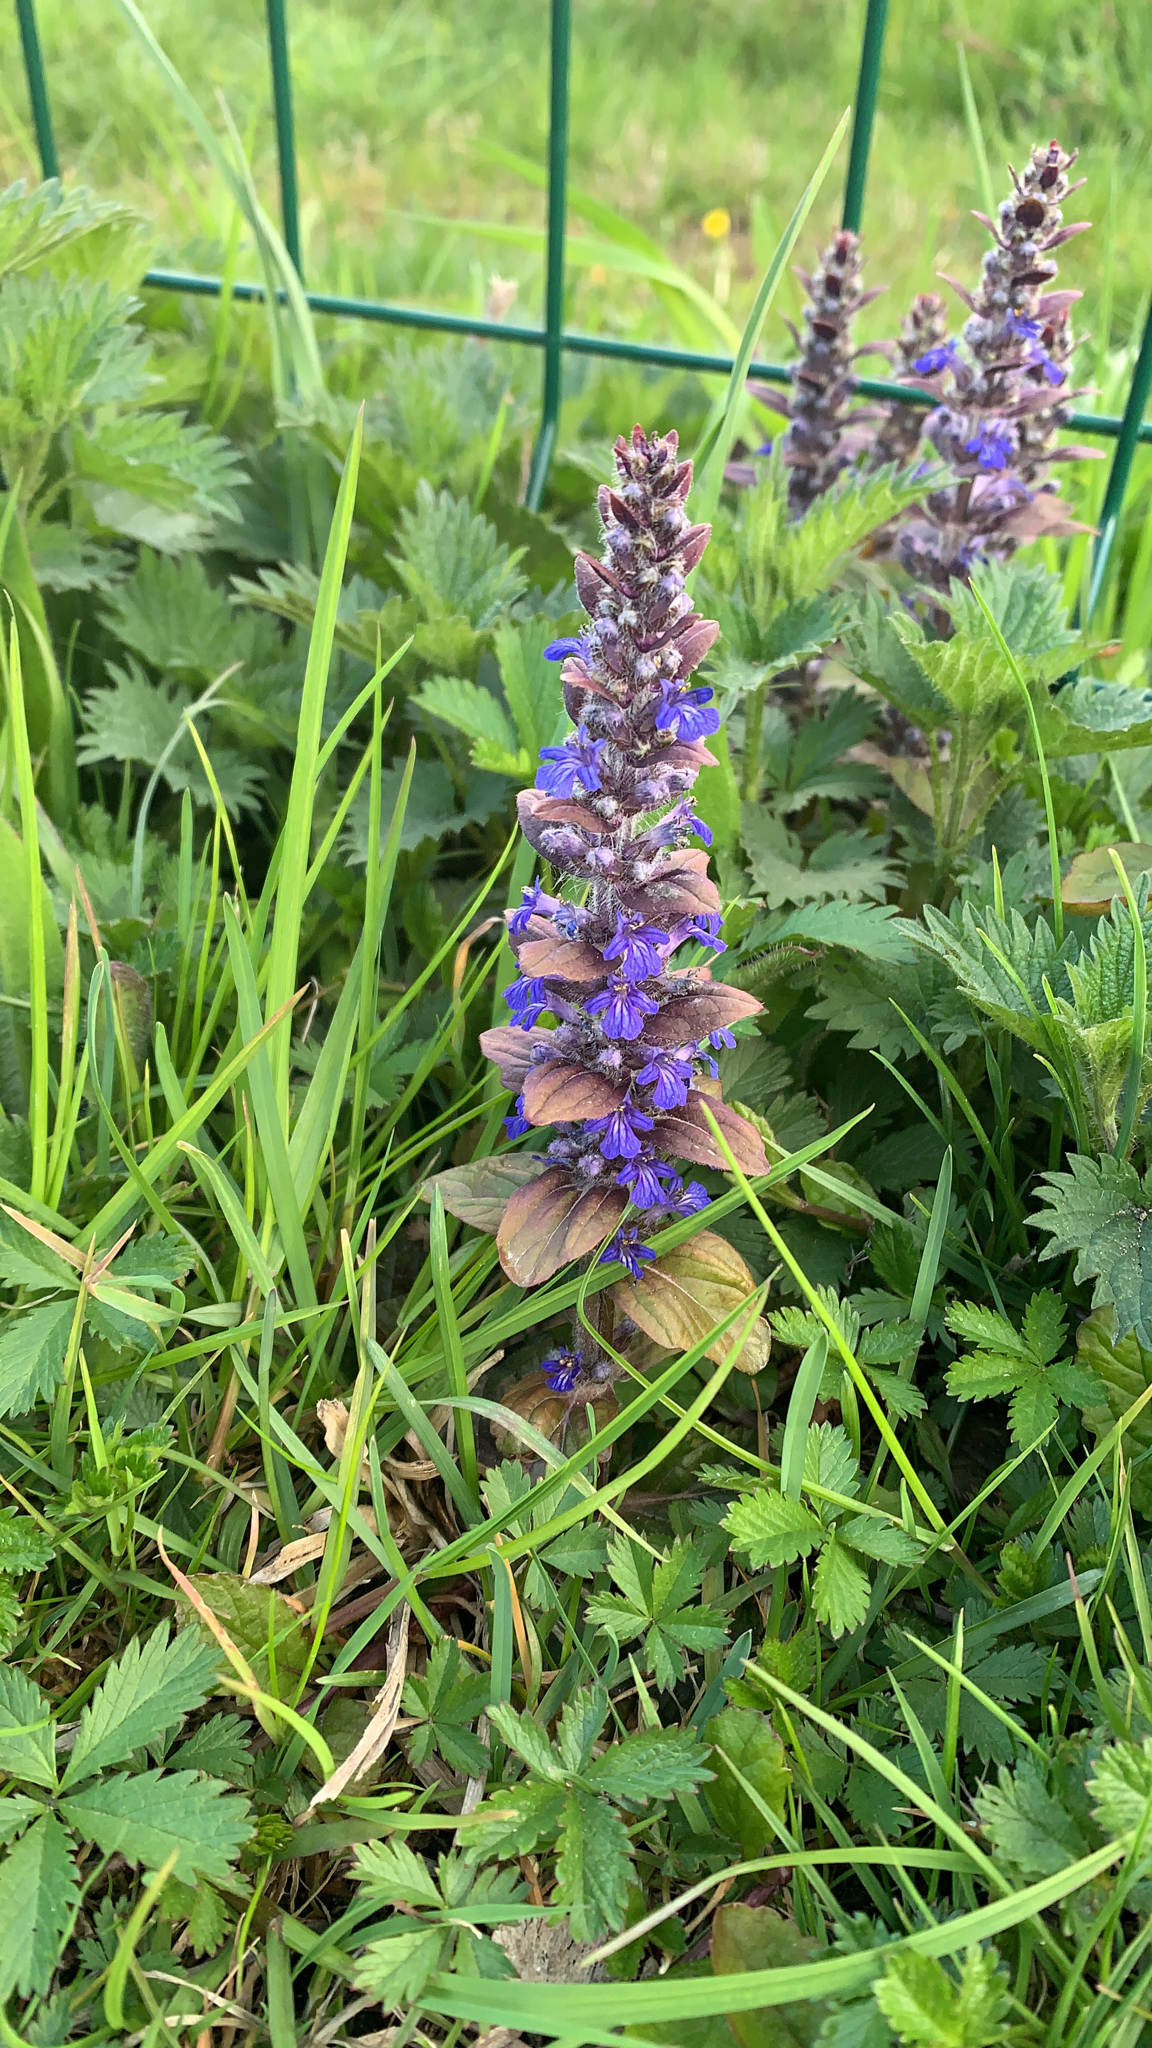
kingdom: Plantae
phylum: Tracheophyta
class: Magnoliopsida
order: Lamiales
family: Lamiaceae
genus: Ajuga
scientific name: Ajuga reptans
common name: Bugle
